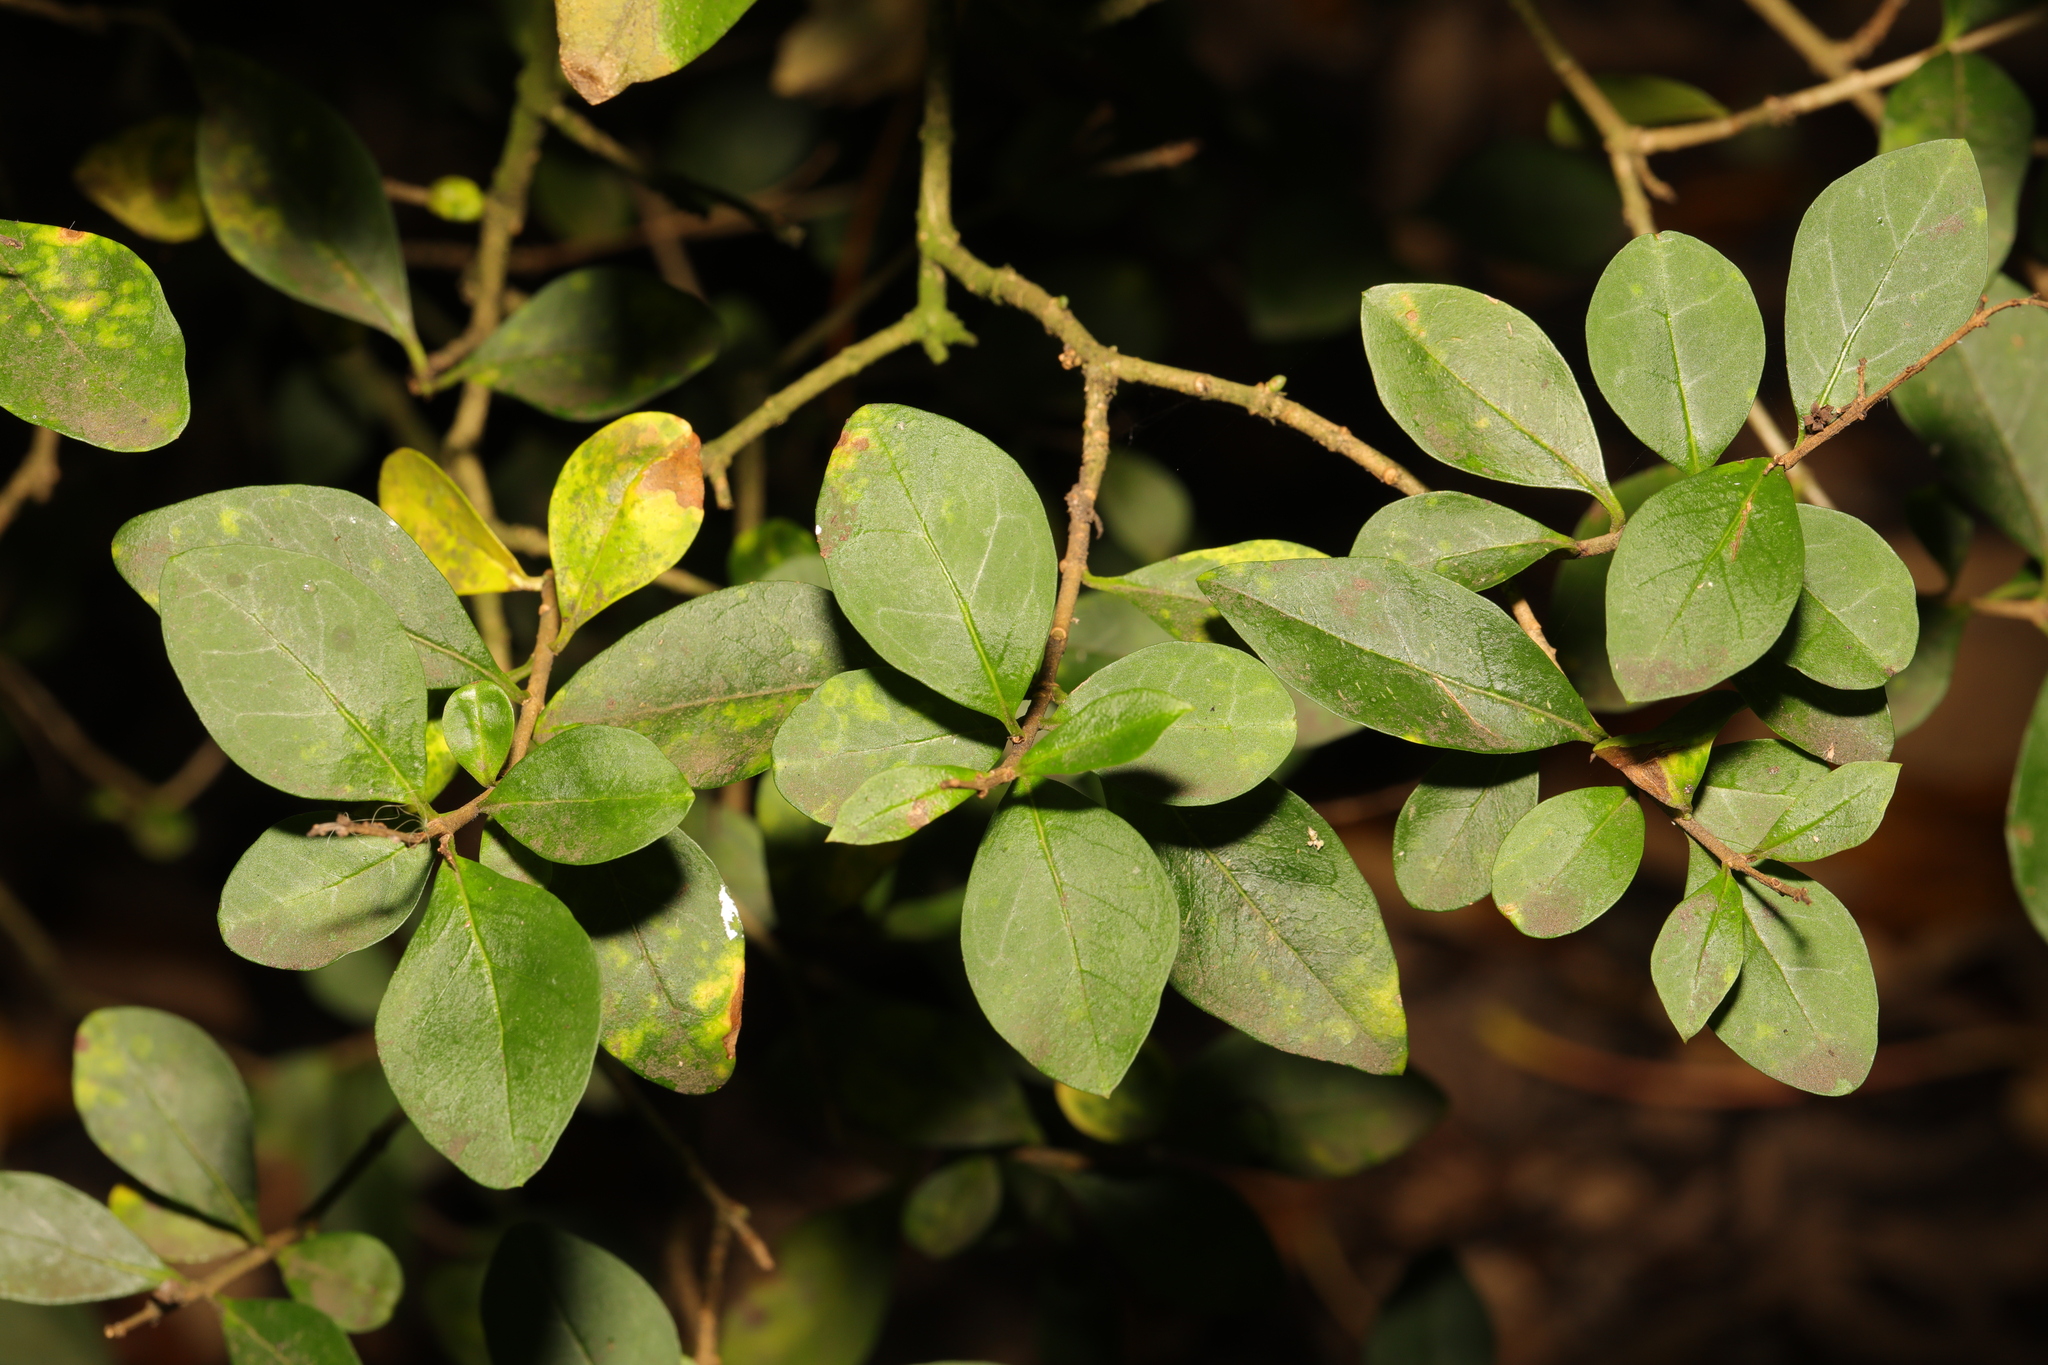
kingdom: Plantae
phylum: Tracheophyta
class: Magnoliopsida
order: Lamiales
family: Oleaceae
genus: Ligustrum
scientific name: Ligustrum ovalifolium
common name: California privet
